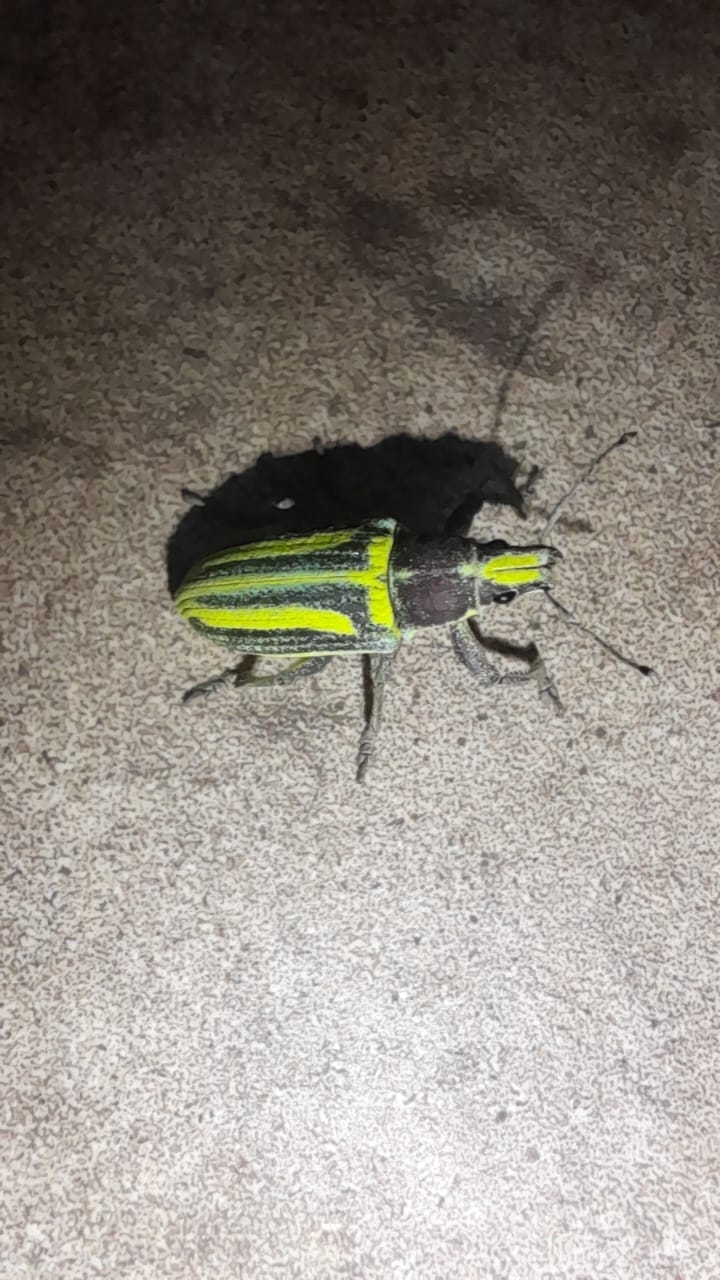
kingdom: Animalia
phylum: Arthropoda
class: Insecta
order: Coleoptera
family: Curculionidae
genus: Enoplopactus
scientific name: Enoplopactus ortizi
